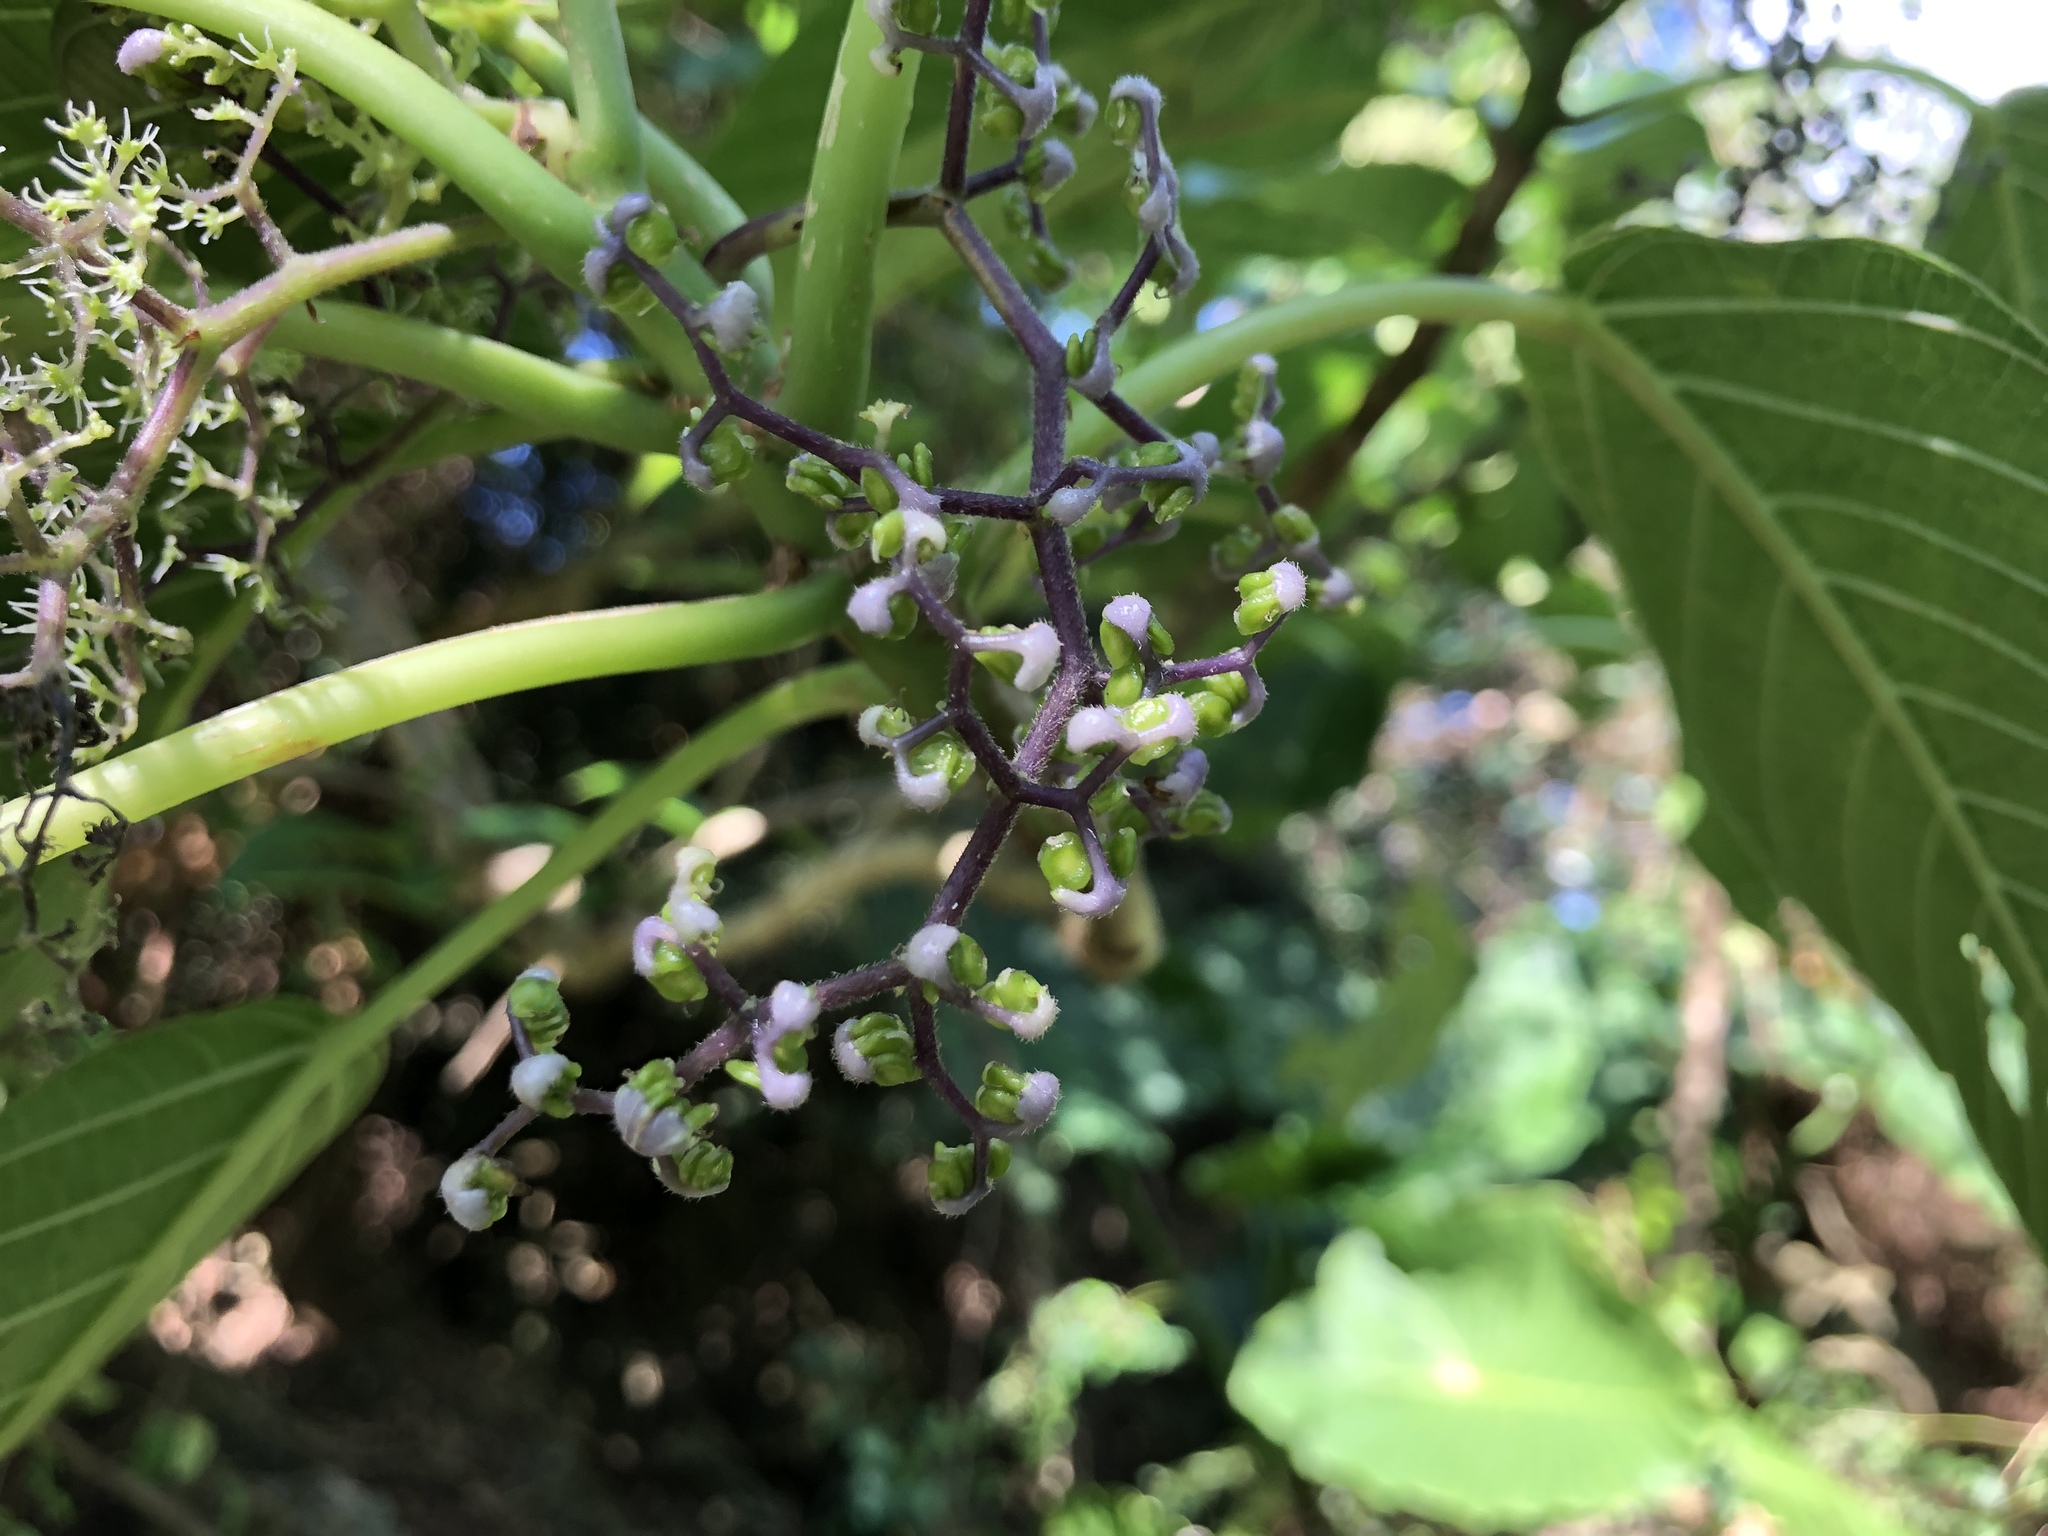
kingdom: Plantae
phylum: Tracheophyta
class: Magnoliopsida
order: Rosales
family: Urticaceae
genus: Dendrocnide
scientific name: Dendrocnide meyeniana
